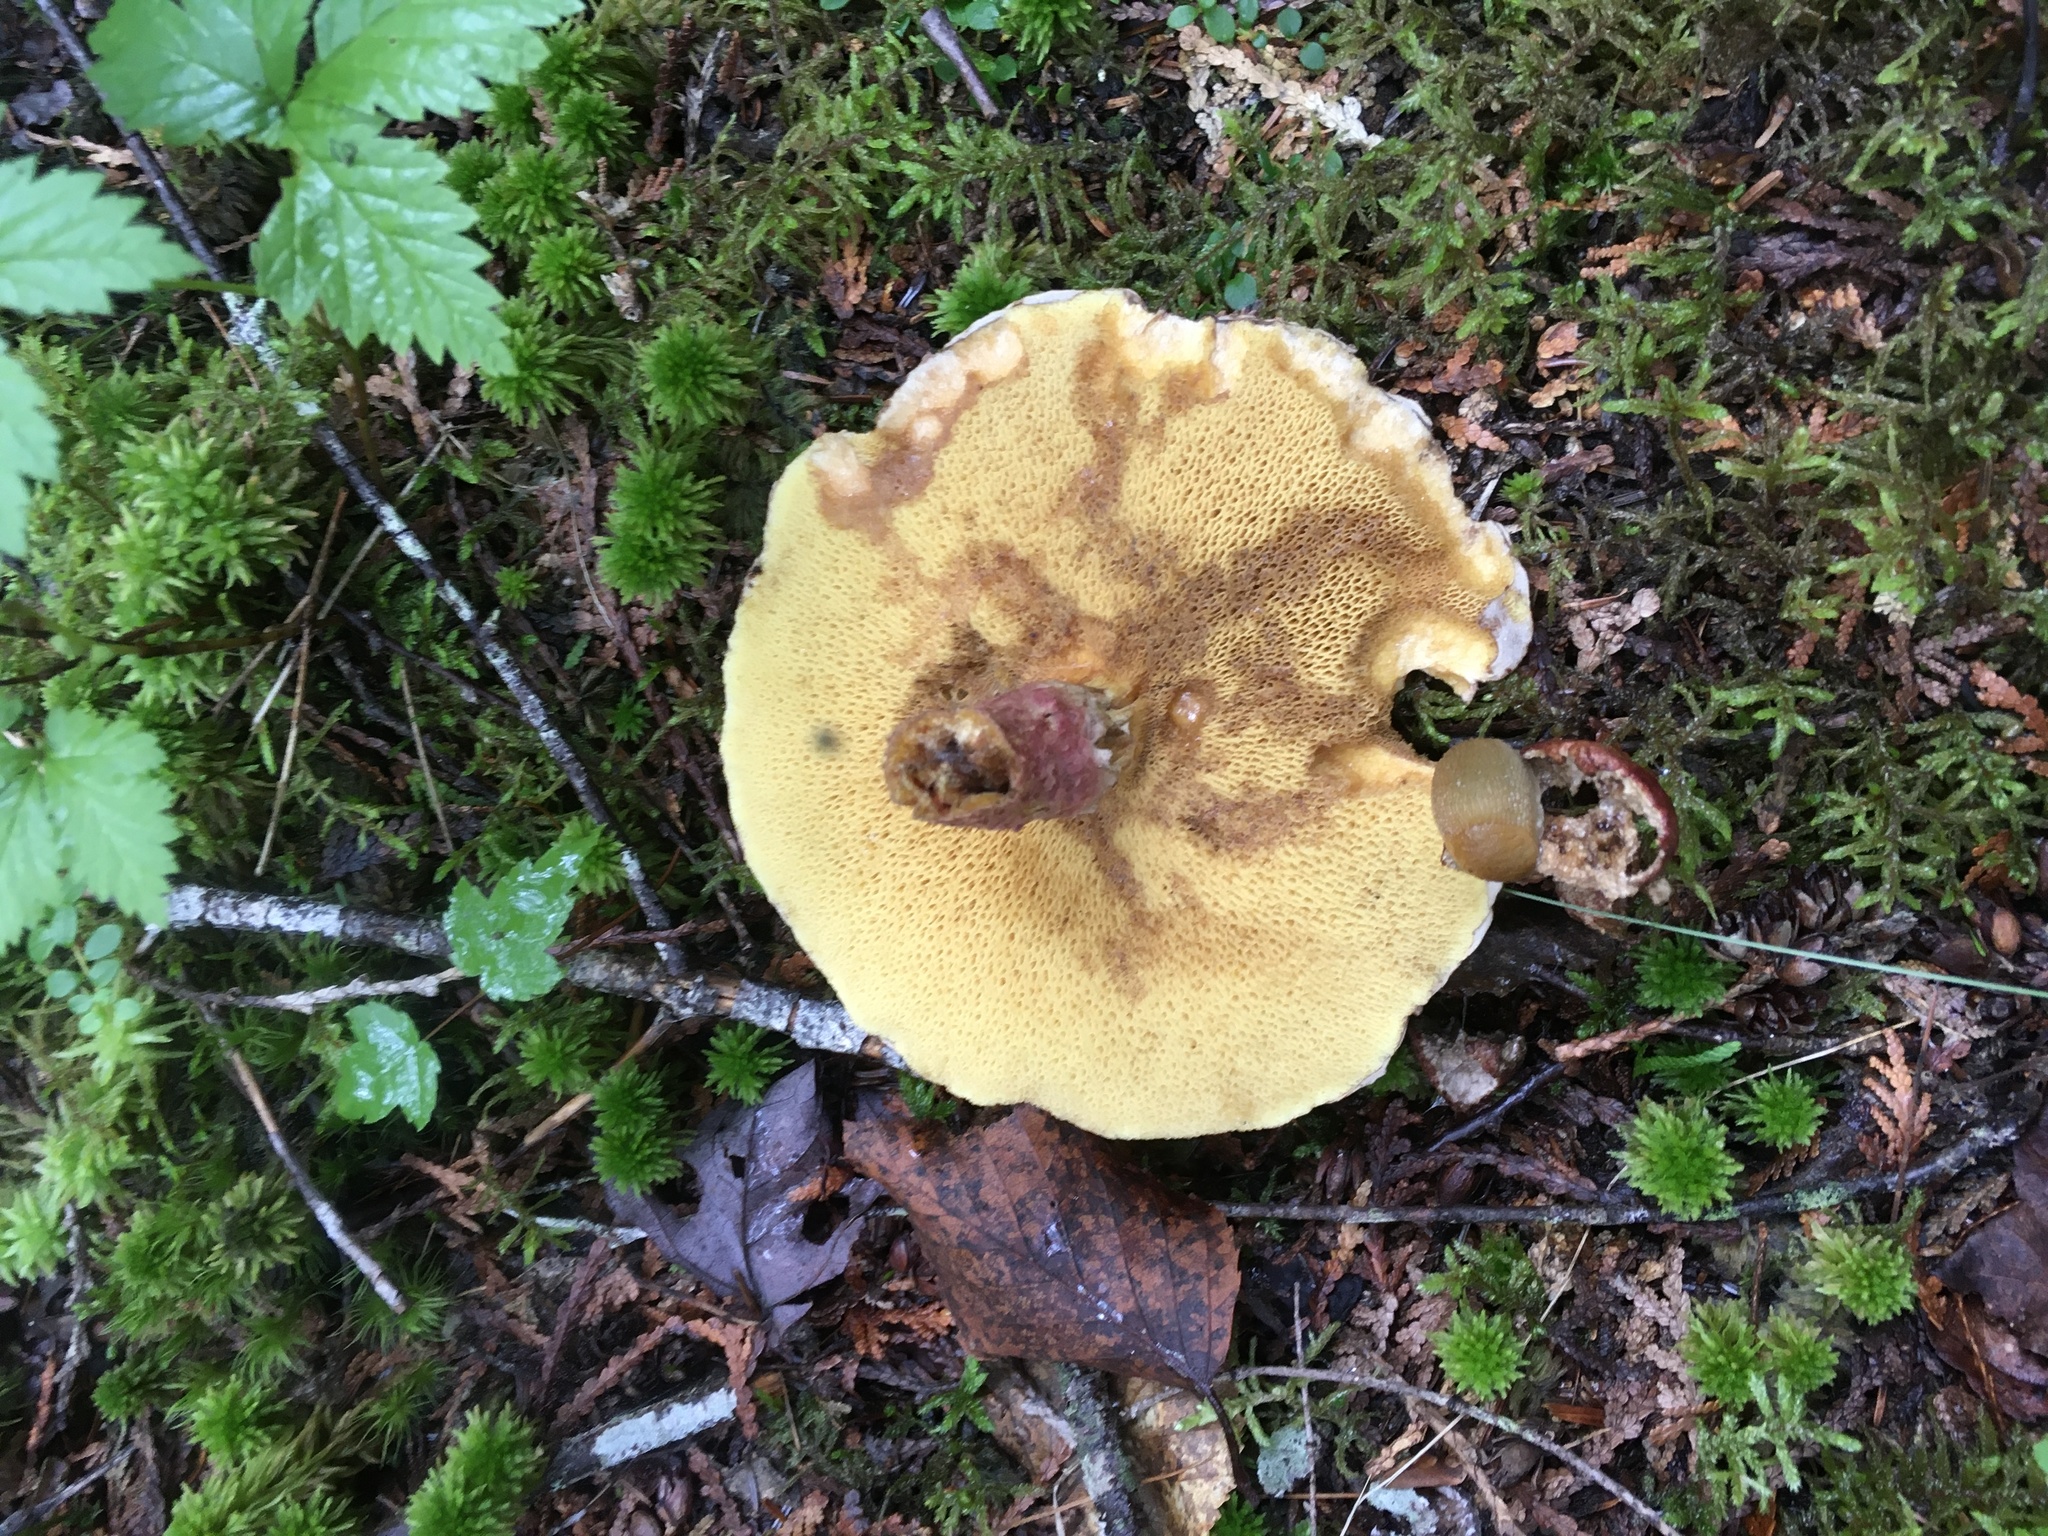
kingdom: Fungi
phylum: Basidiomycota
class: Agaricomycetes
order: Boletales
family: Suillaceae
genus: Suillus
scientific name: Suillus spraguei
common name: Painted suillus
